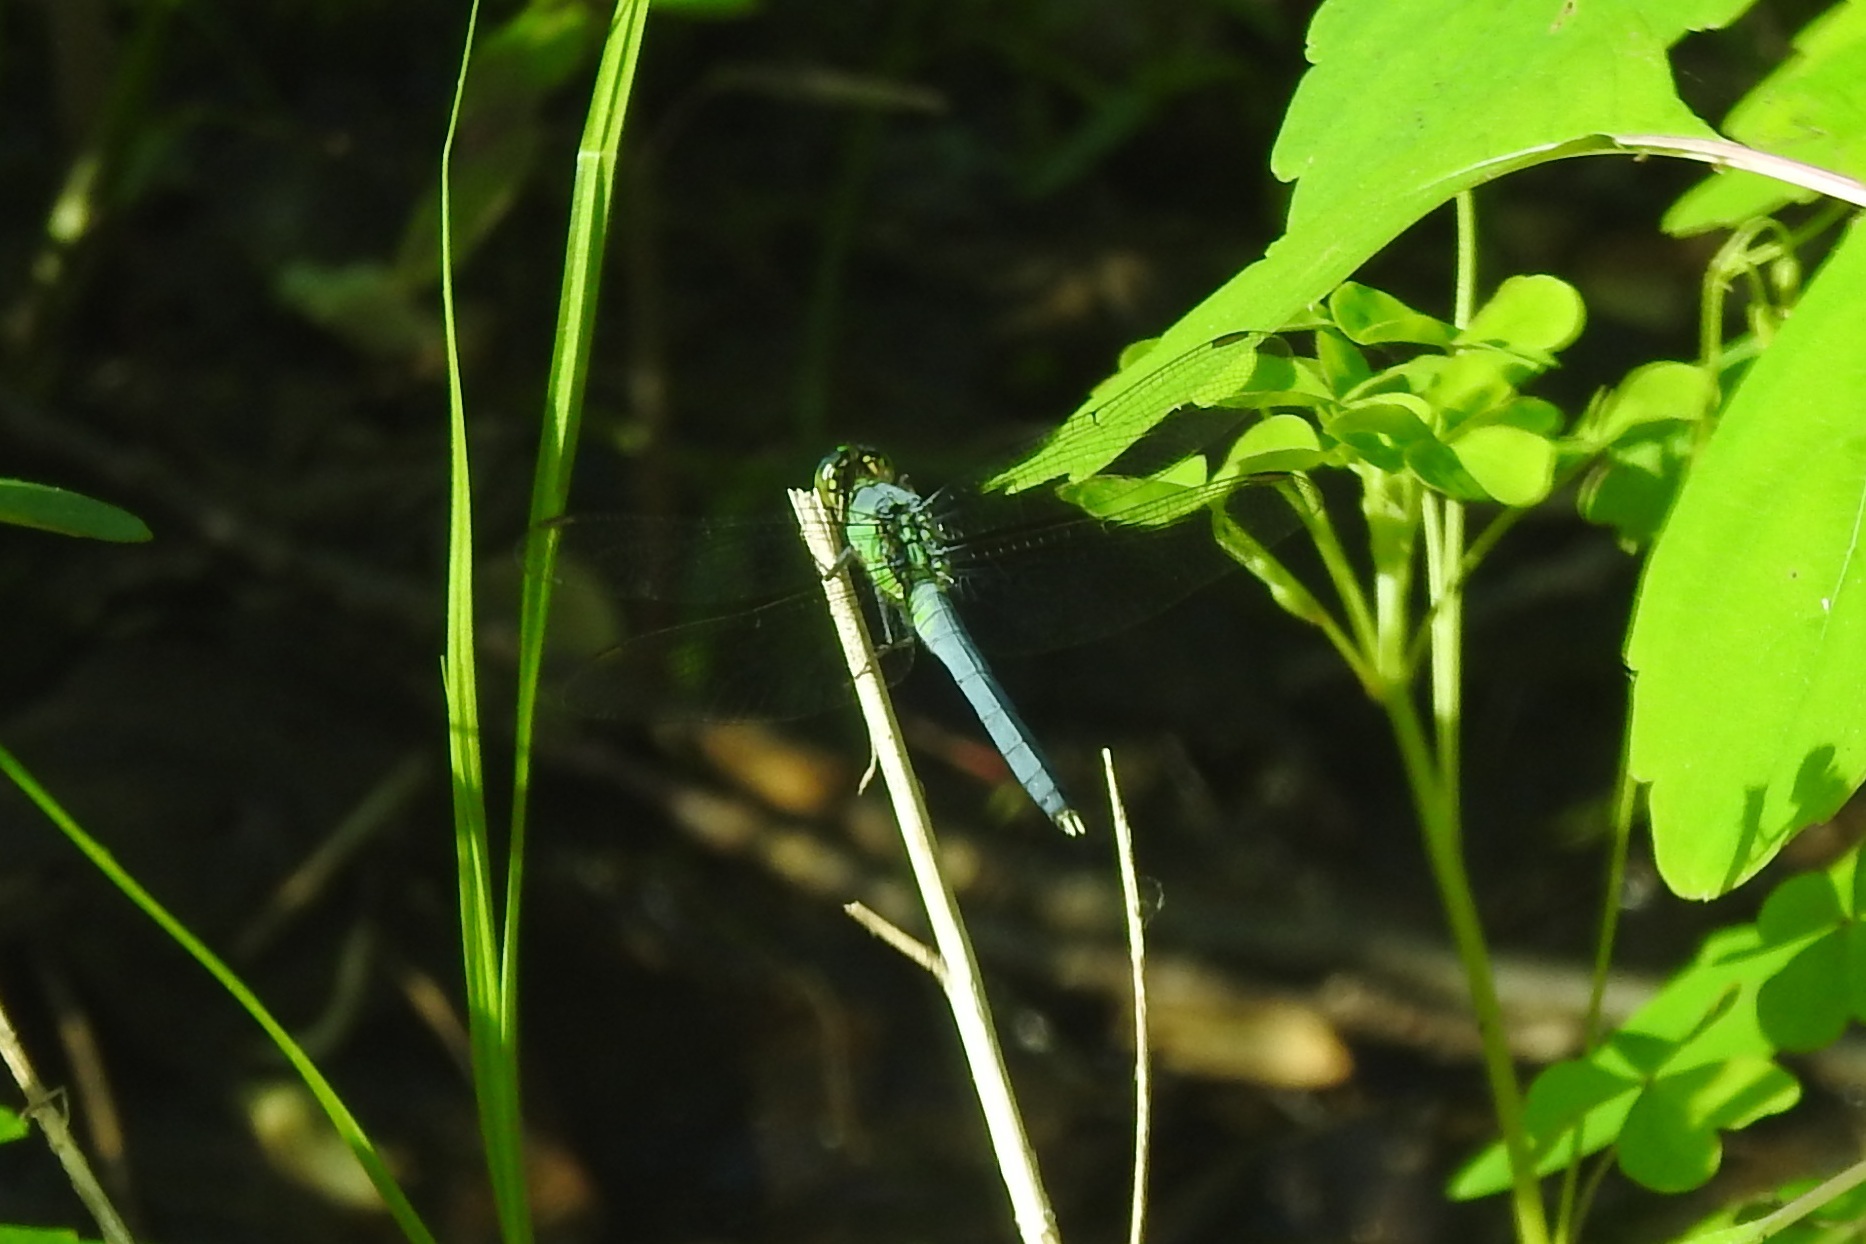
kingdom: Animalia
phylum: Arthropoda
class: Insecta
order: Odonata
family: Libellulidae
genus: Erythemis
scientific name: Erythemis simplicicollis
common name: Eastern pondhawk
